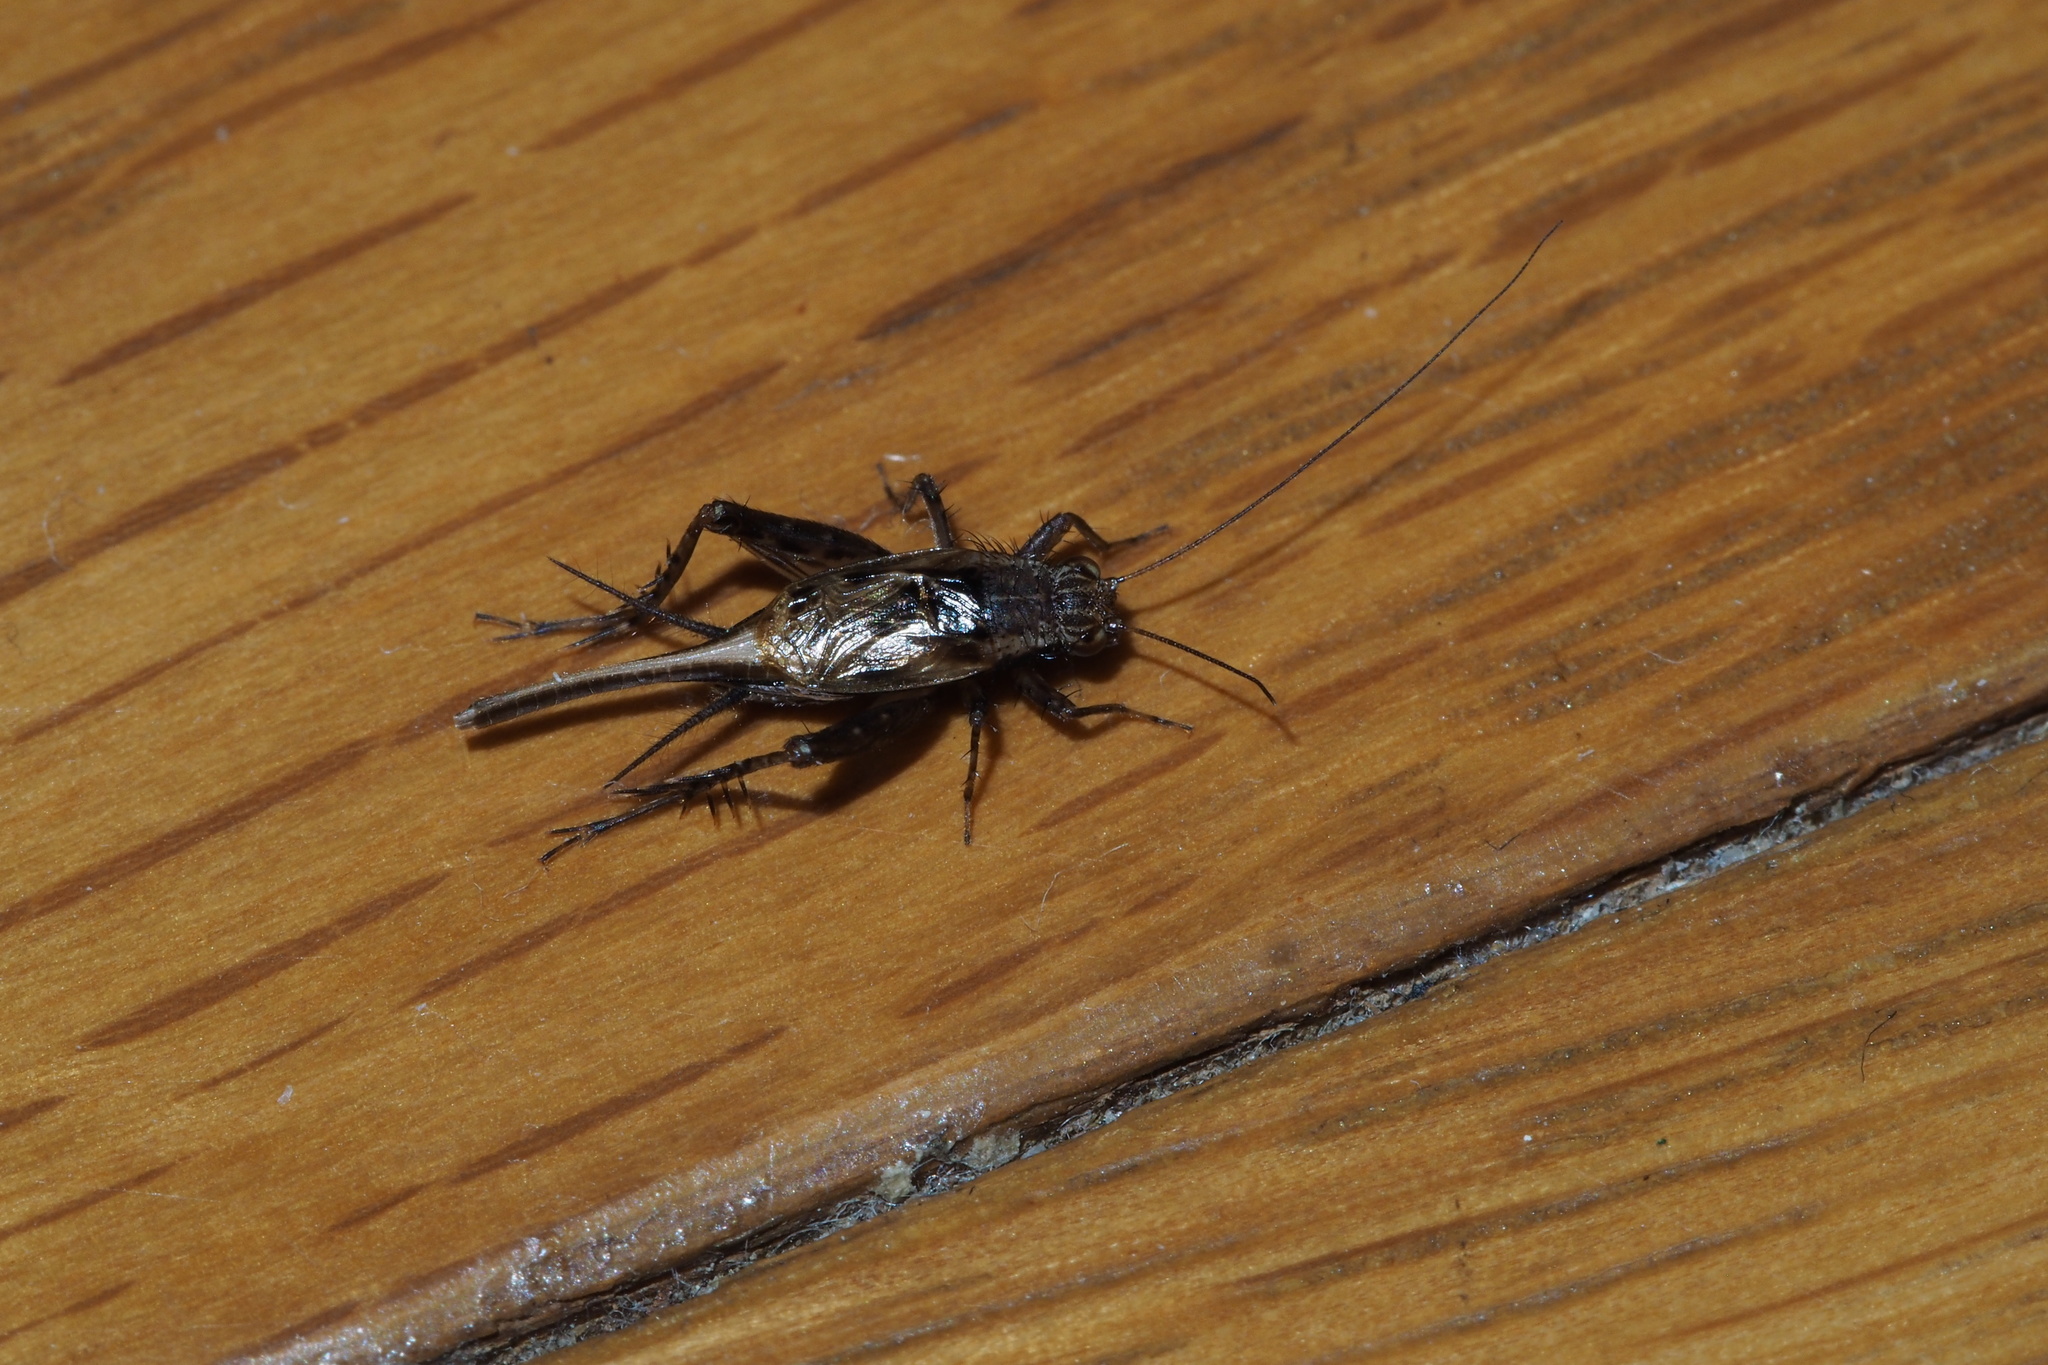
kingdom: Animalia
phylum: Arthropoda
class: Insecta
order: Orthoptera
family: Trigonidiidae
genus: Polionemobius
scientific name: Polionemobius taprobanense
